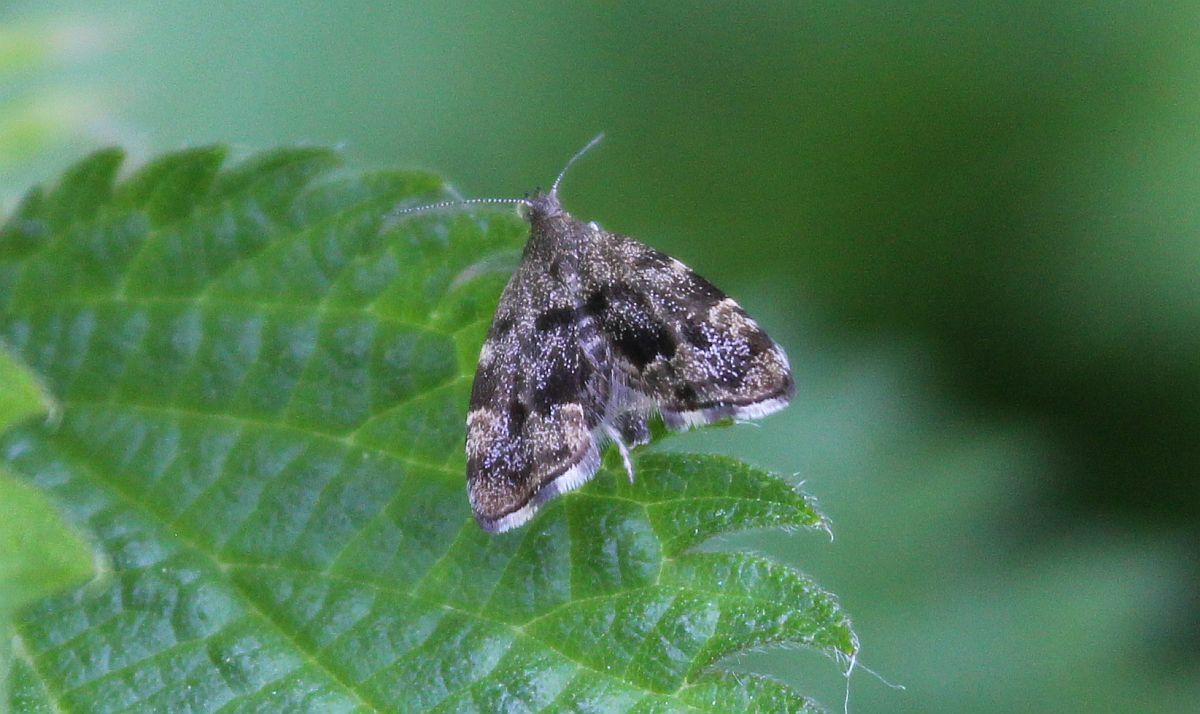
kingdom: Animalia
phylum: Arthropoda
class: Insecta
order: Lepidoptera
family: Choreutidae
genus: Anthophila
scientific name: Anthophila fabriciana
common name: Nettle-tap
